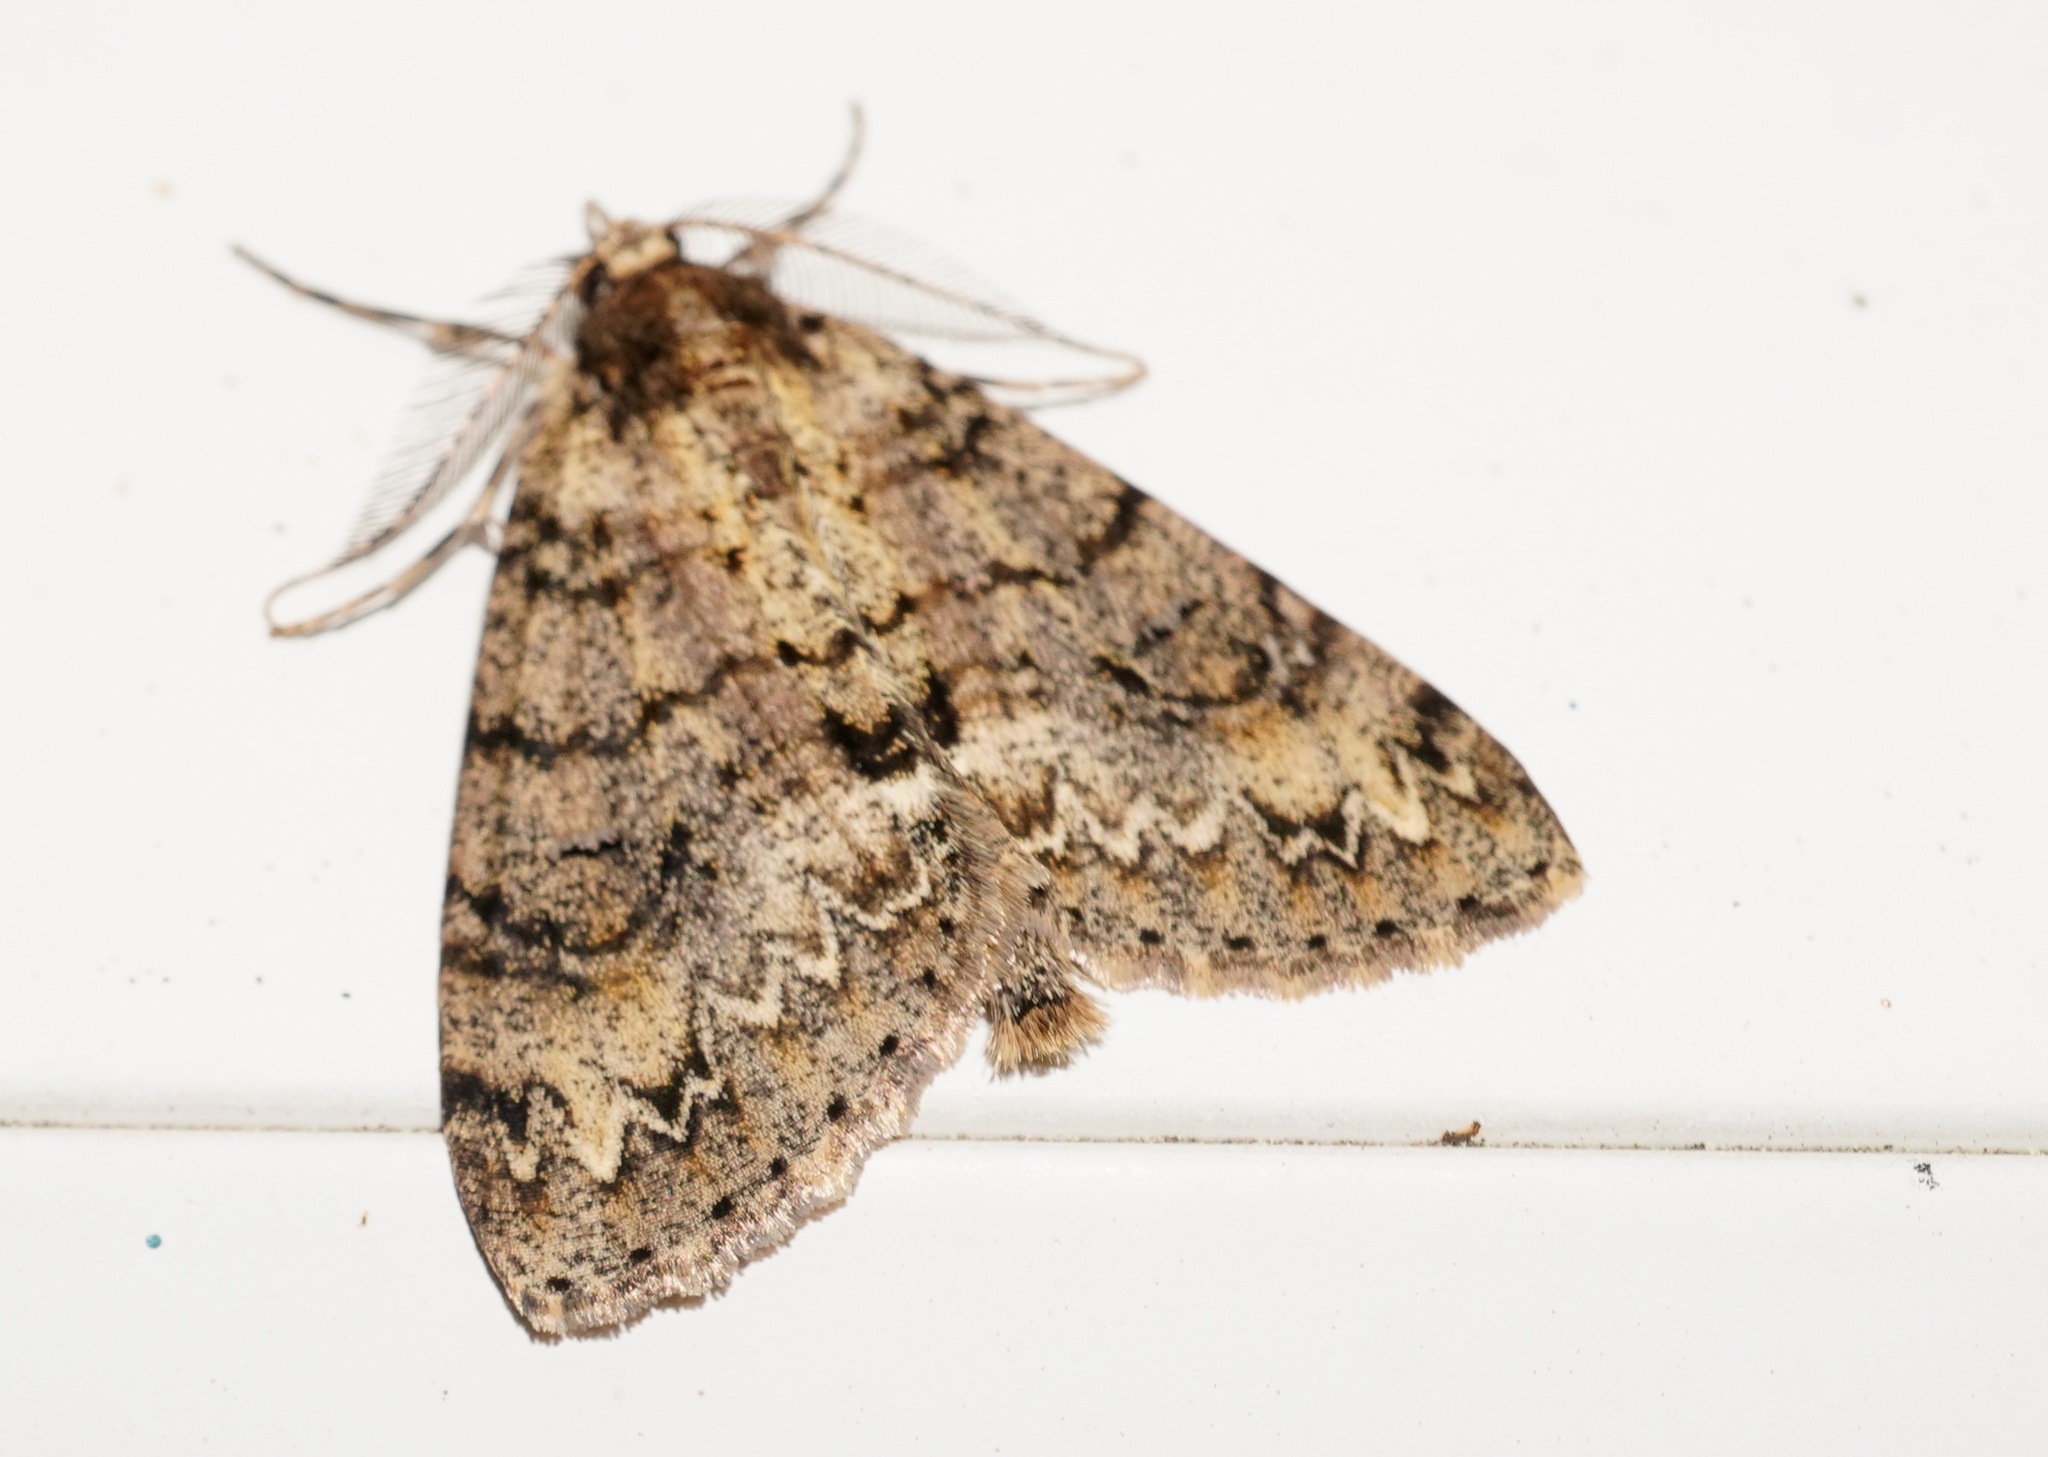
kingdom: Animalia
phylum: Arthropoda
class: Insecta
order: Lepidoptera
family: Geometridae
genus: Pseudocoremia
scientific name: Pseudocoremia suavis
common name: Common forest looper
